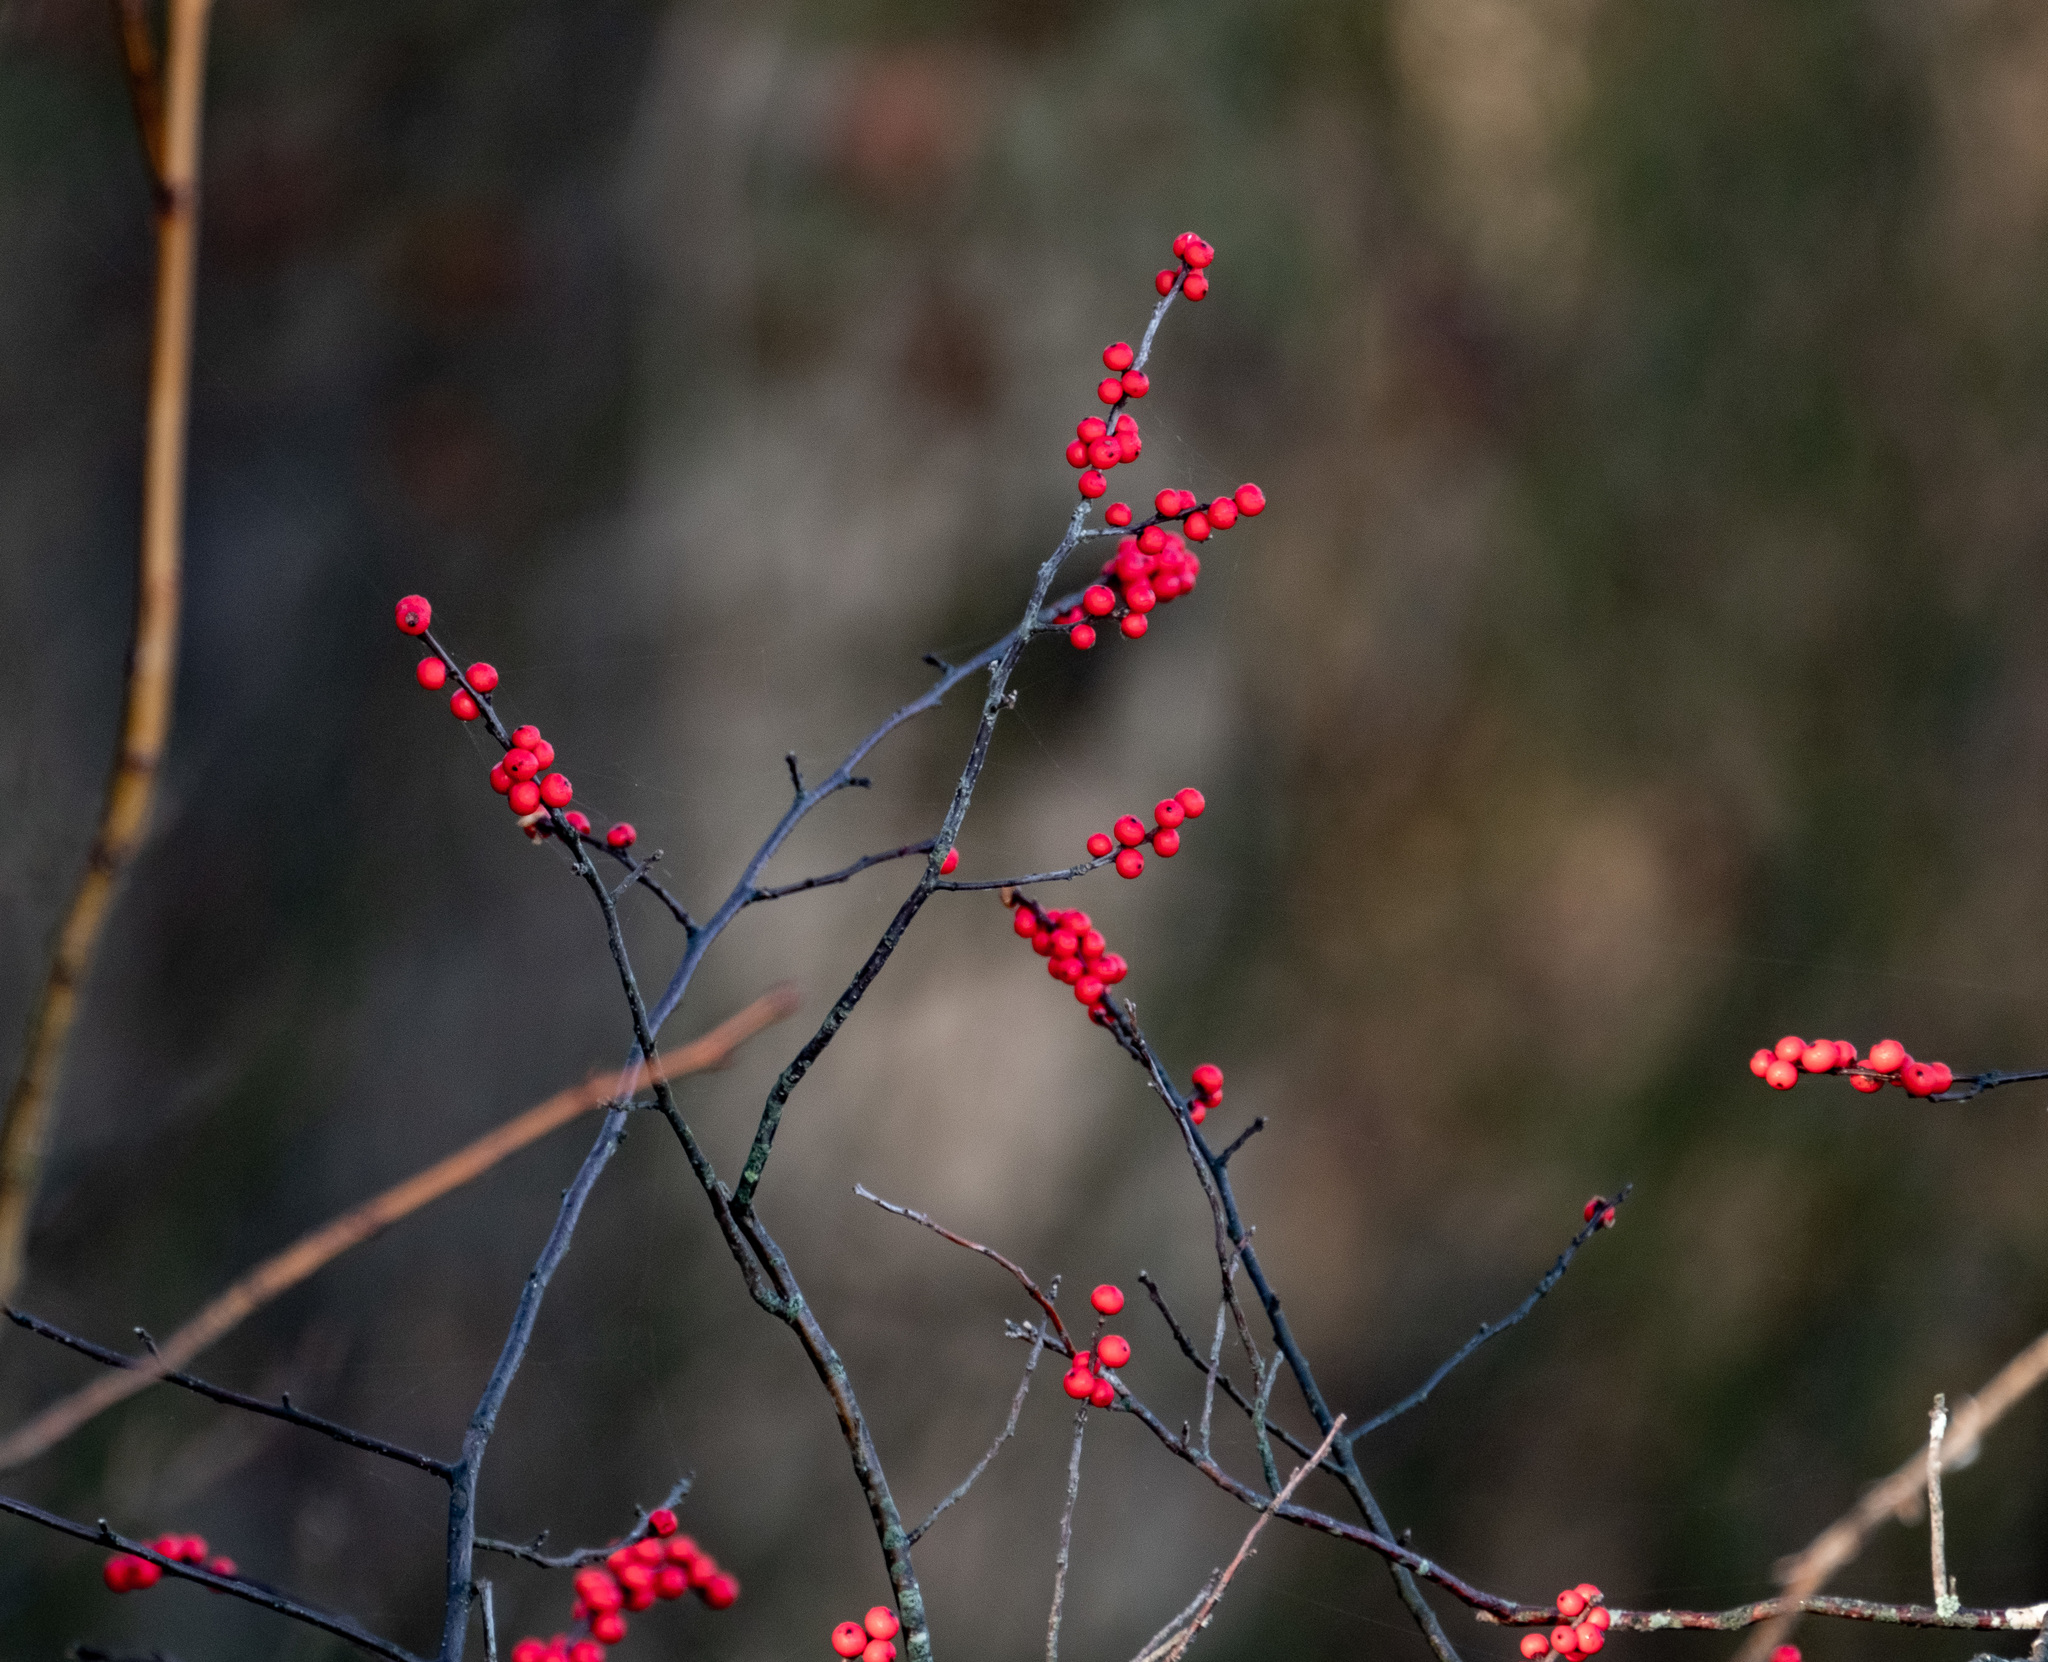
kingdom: Plantae
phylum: Tracheophyta
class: Magnoliopsida
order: Aquifoliales
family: Aquifoliaceae
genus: Ilex
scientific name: Ilex verticillata
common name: Virginia winterberry
